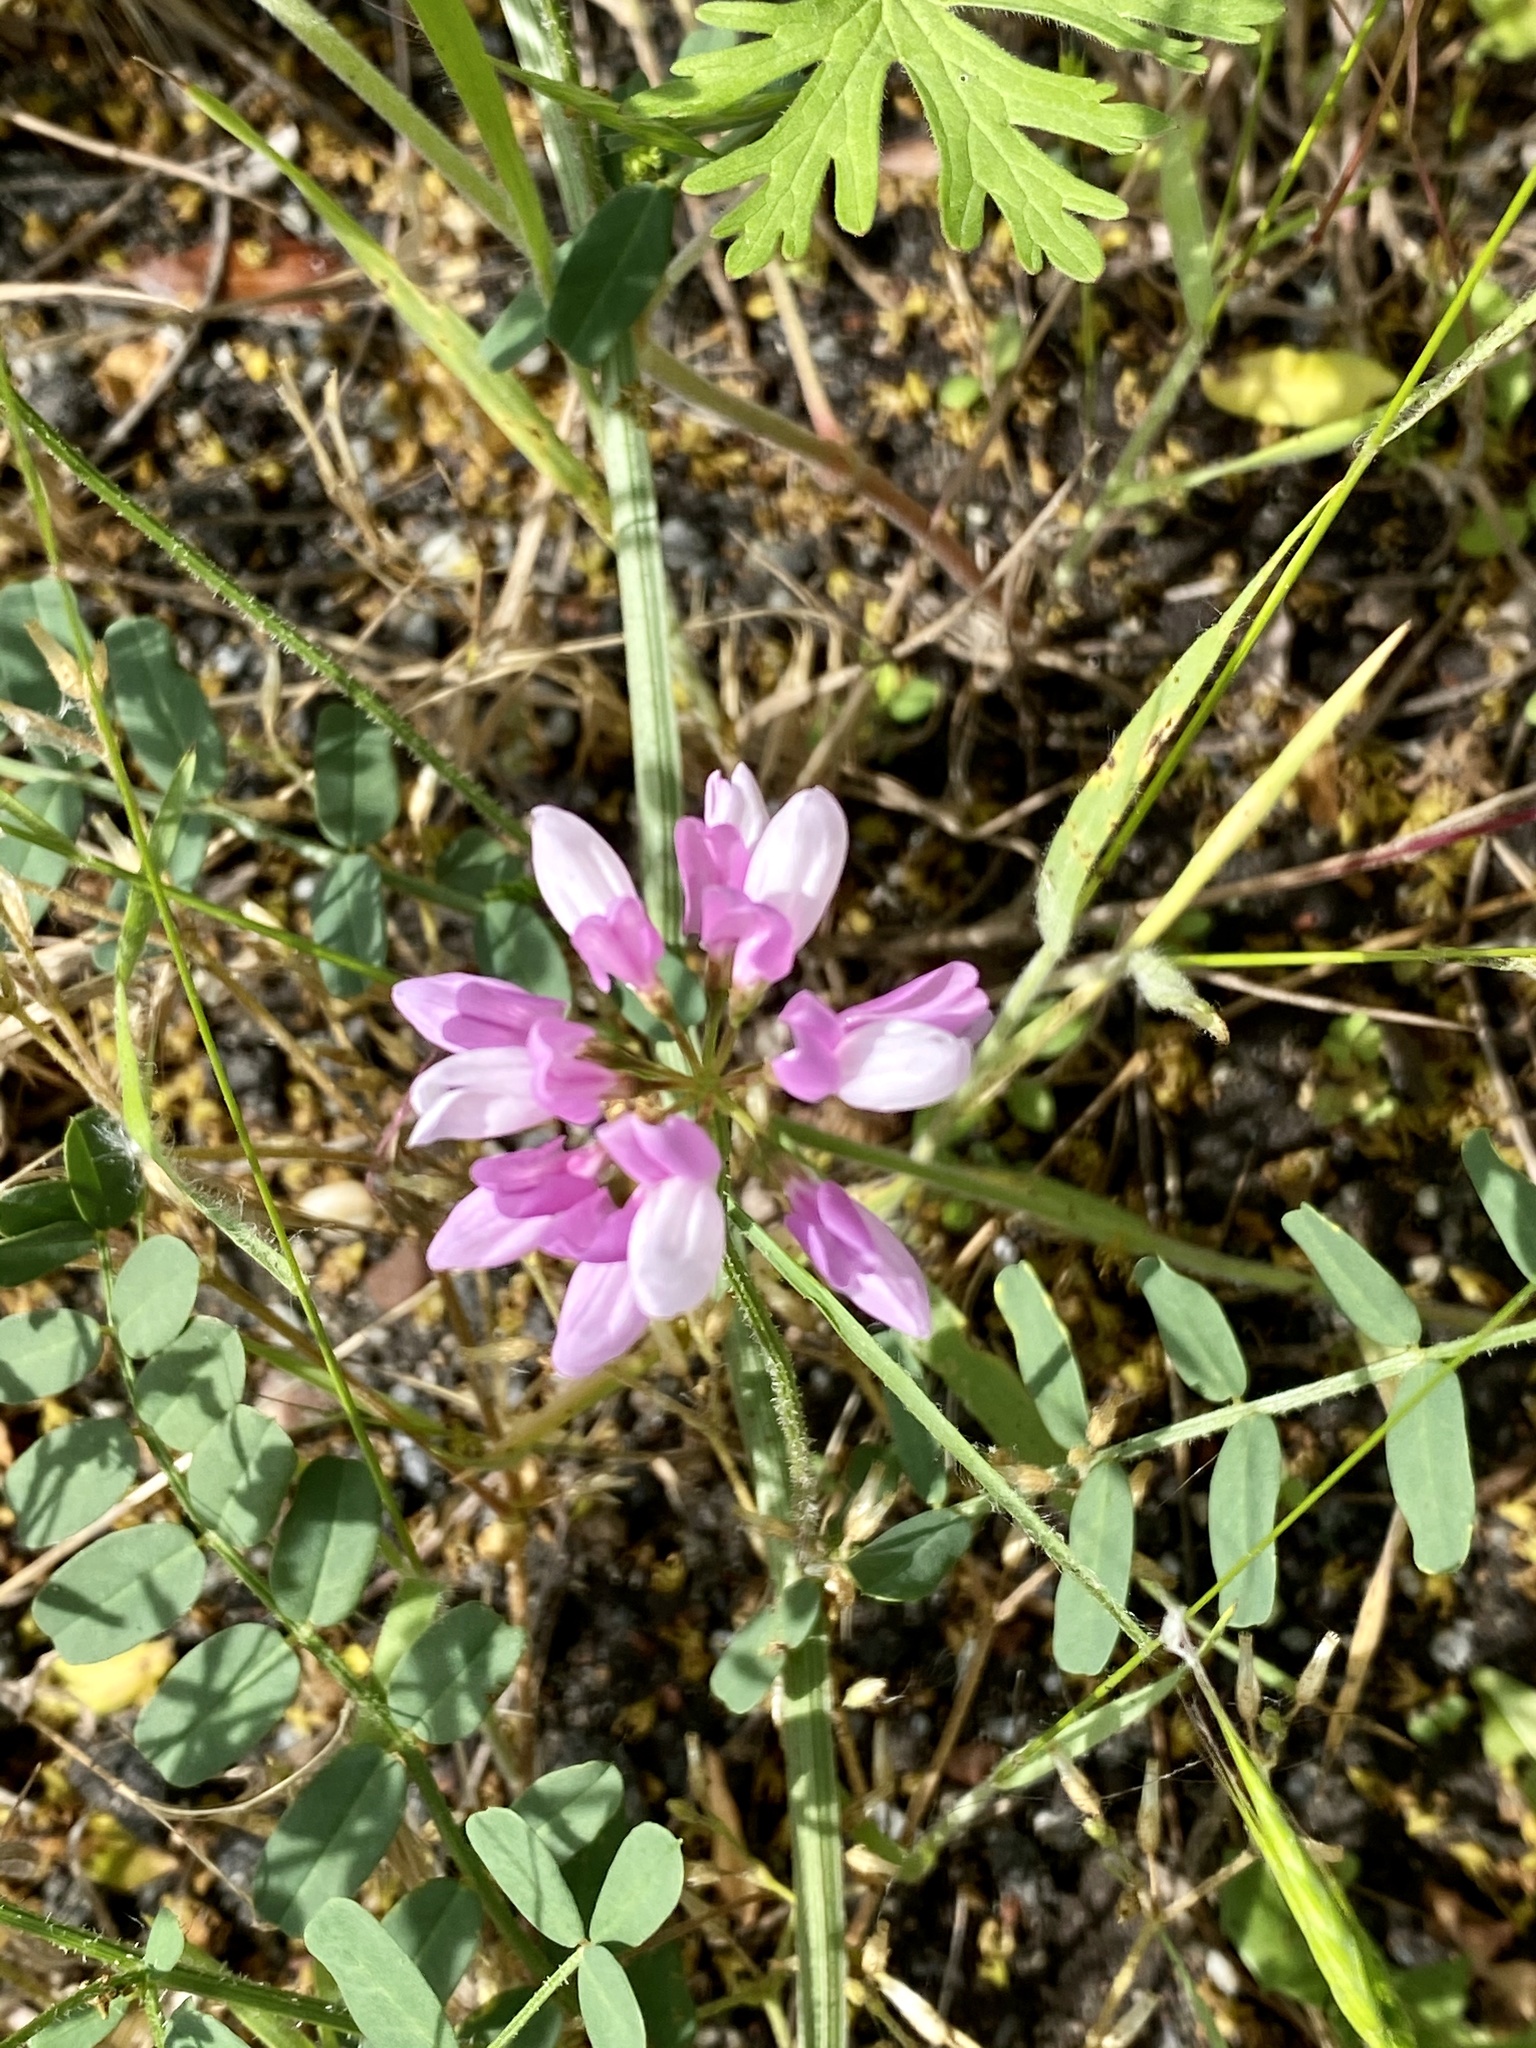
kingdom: Plantae
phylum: Tracheophyta
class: Magnoliopsida
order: Fabales
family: Fabaceae
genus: Coronilla
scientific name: Coronilla varia
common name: Crownvetch
